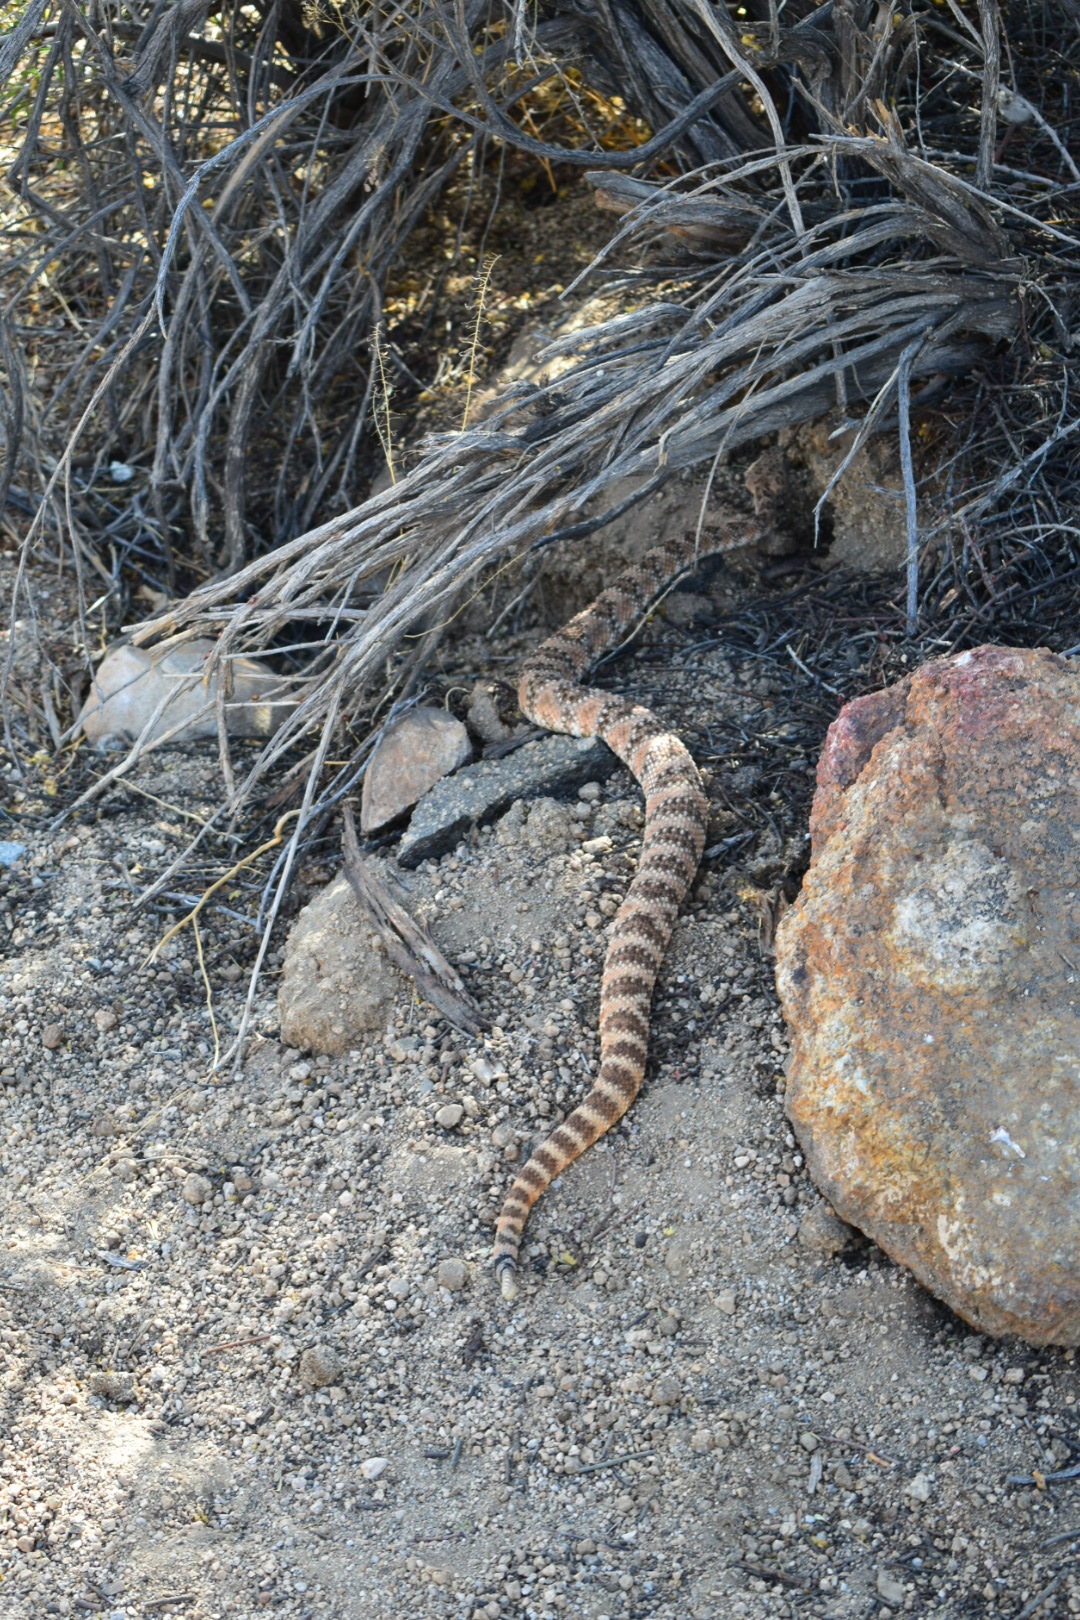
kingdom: Animalia
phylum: Chordata
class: Squamata
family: Viperidae
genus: Crotalus
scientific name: Crotalus pyrrhus
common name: Southwestern speckled rattlesnake
